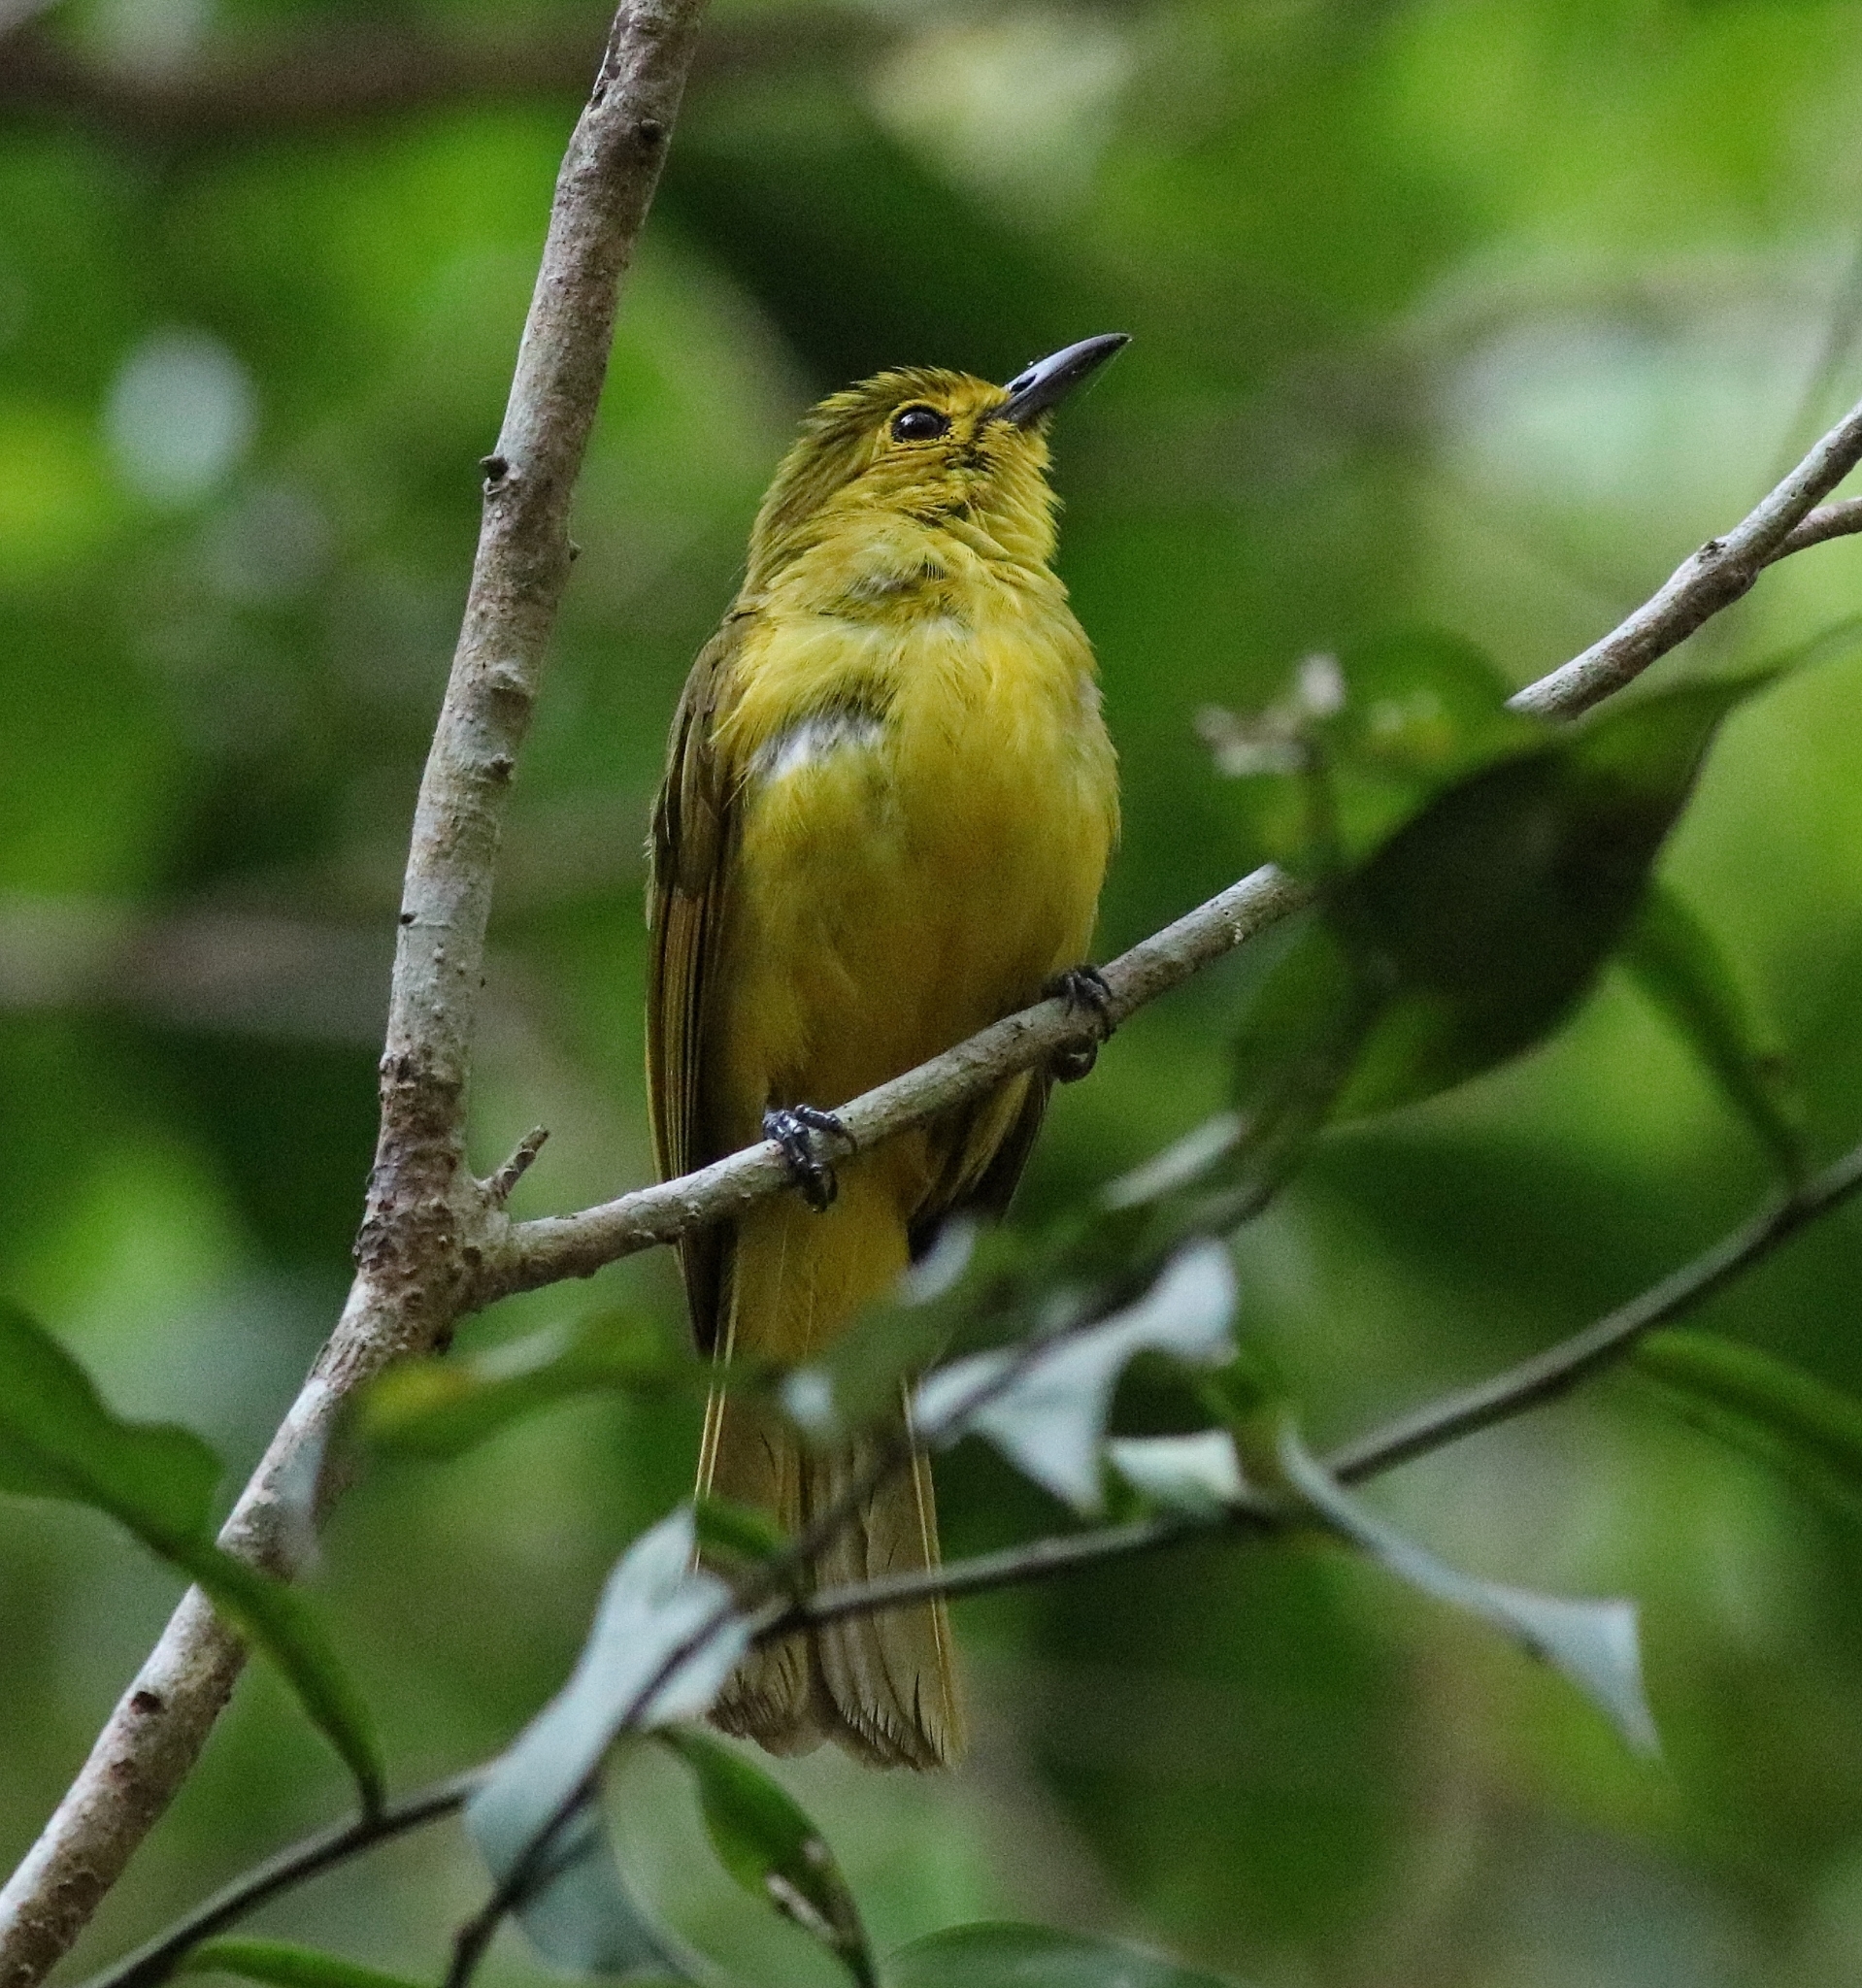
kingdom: Animalia
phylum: Chordata
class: Aves
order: Passeriformes
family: Pycnonotidae
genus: Acritillas
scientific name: Acritillas indica
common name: Yellow-browed bulbul
